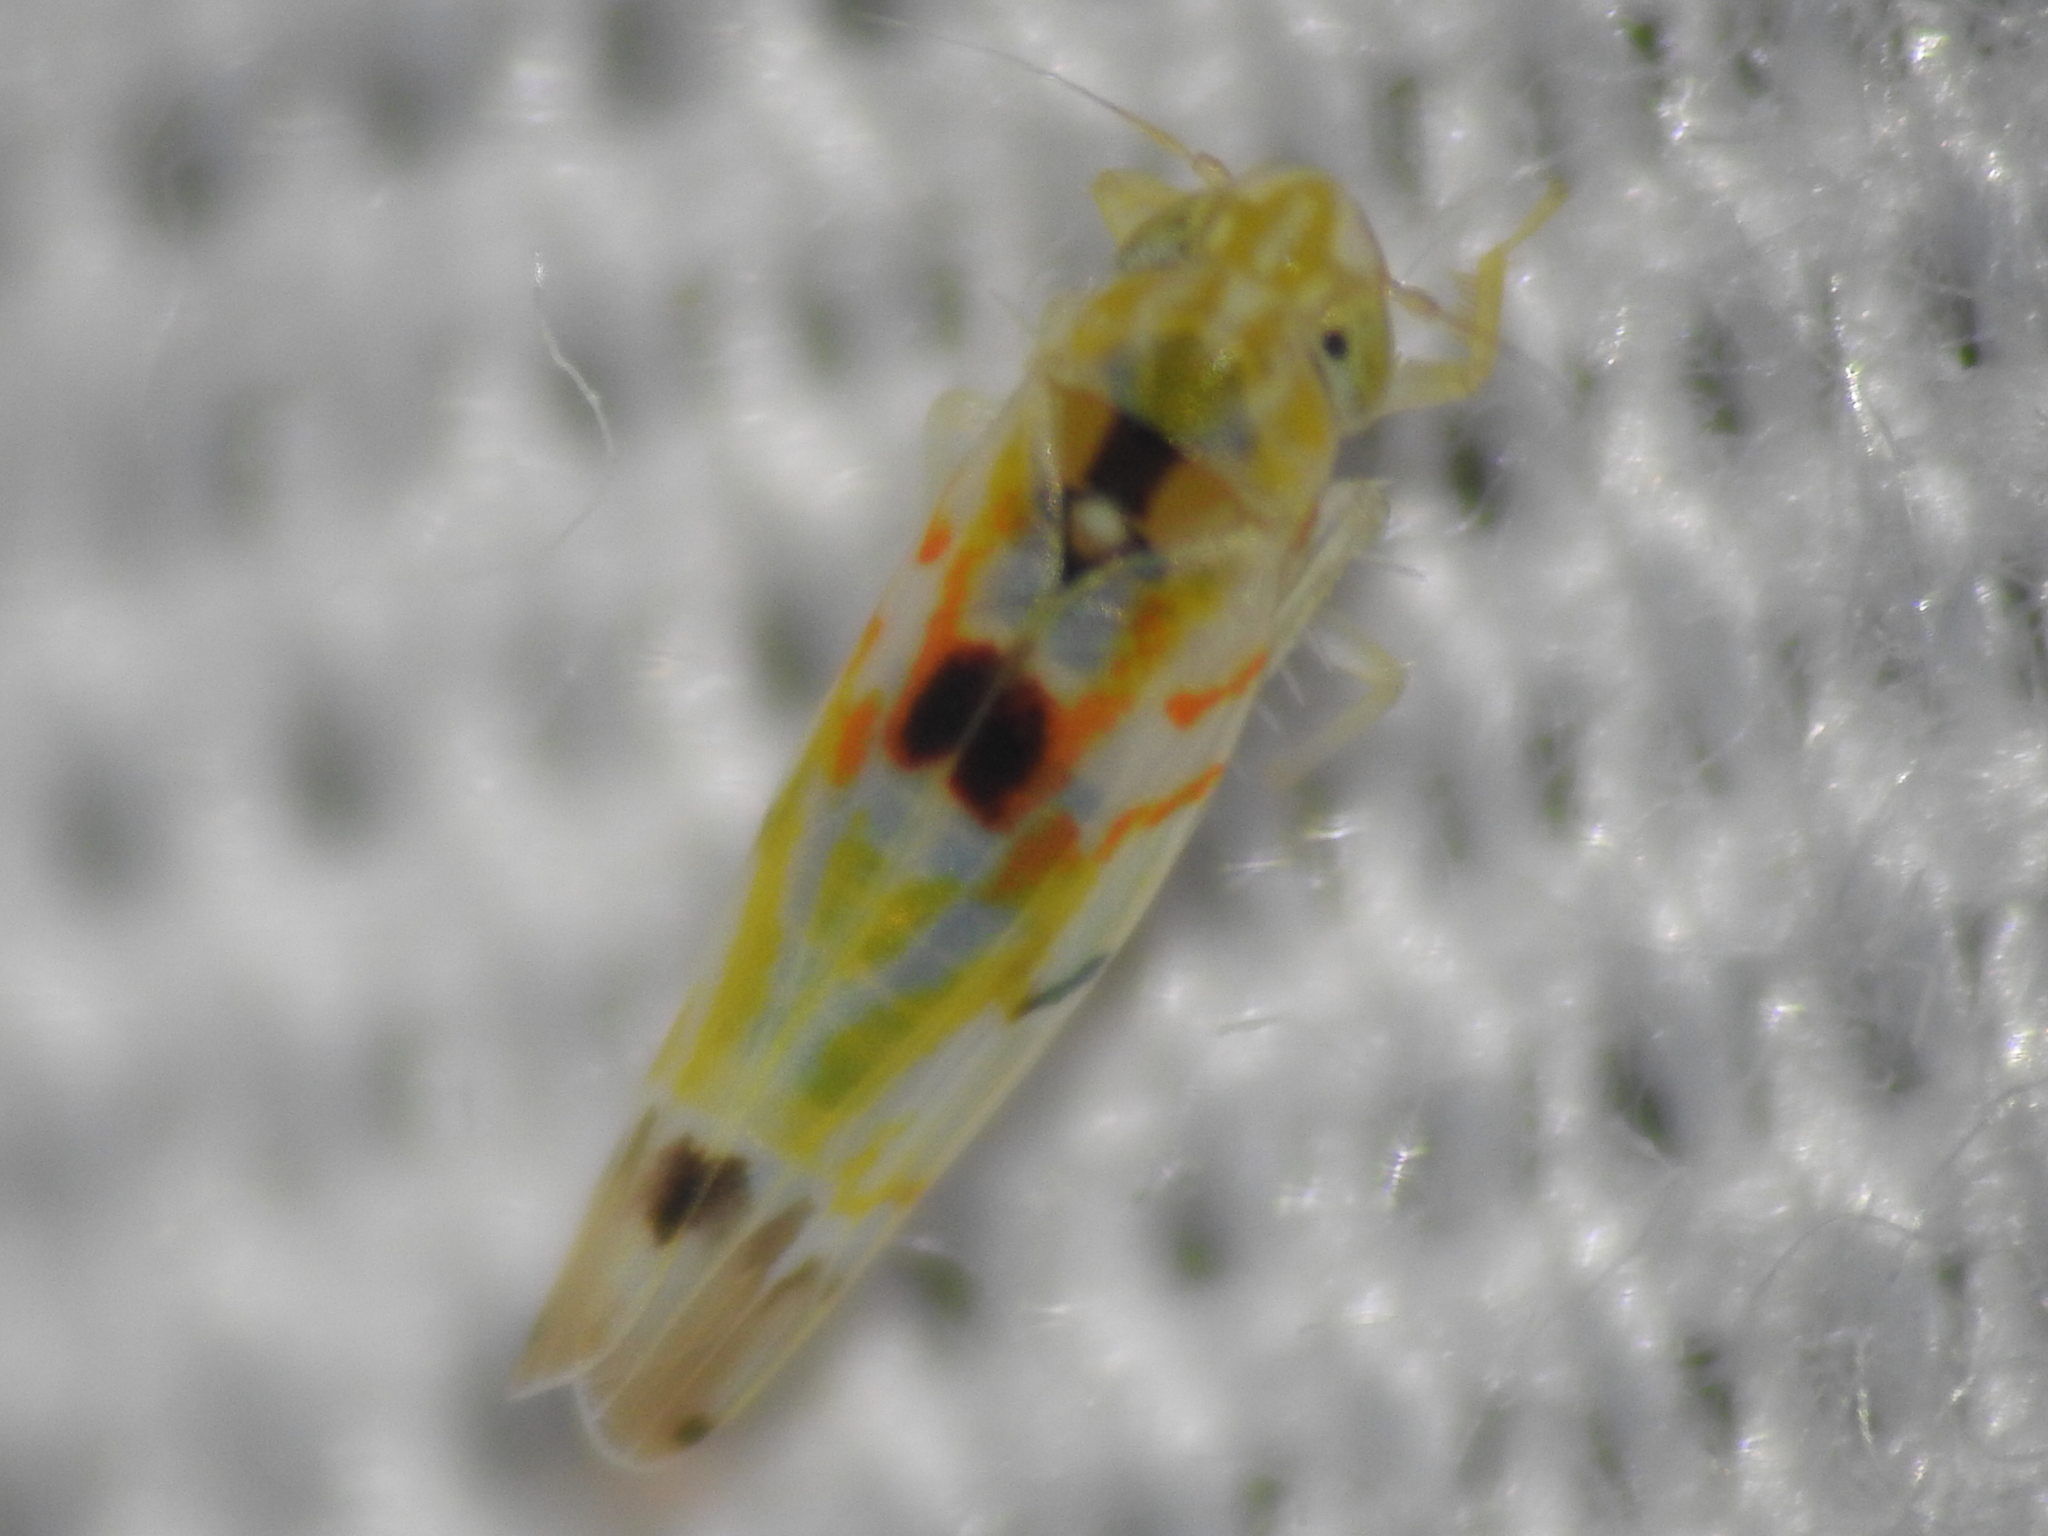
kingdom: Animalia
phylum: Arthropoda
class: Insecta
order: Hemiptera
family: Cicadellidae
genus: Erythroneura
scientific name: Erythroneura octonotata
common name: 8-spotted leafhopper
